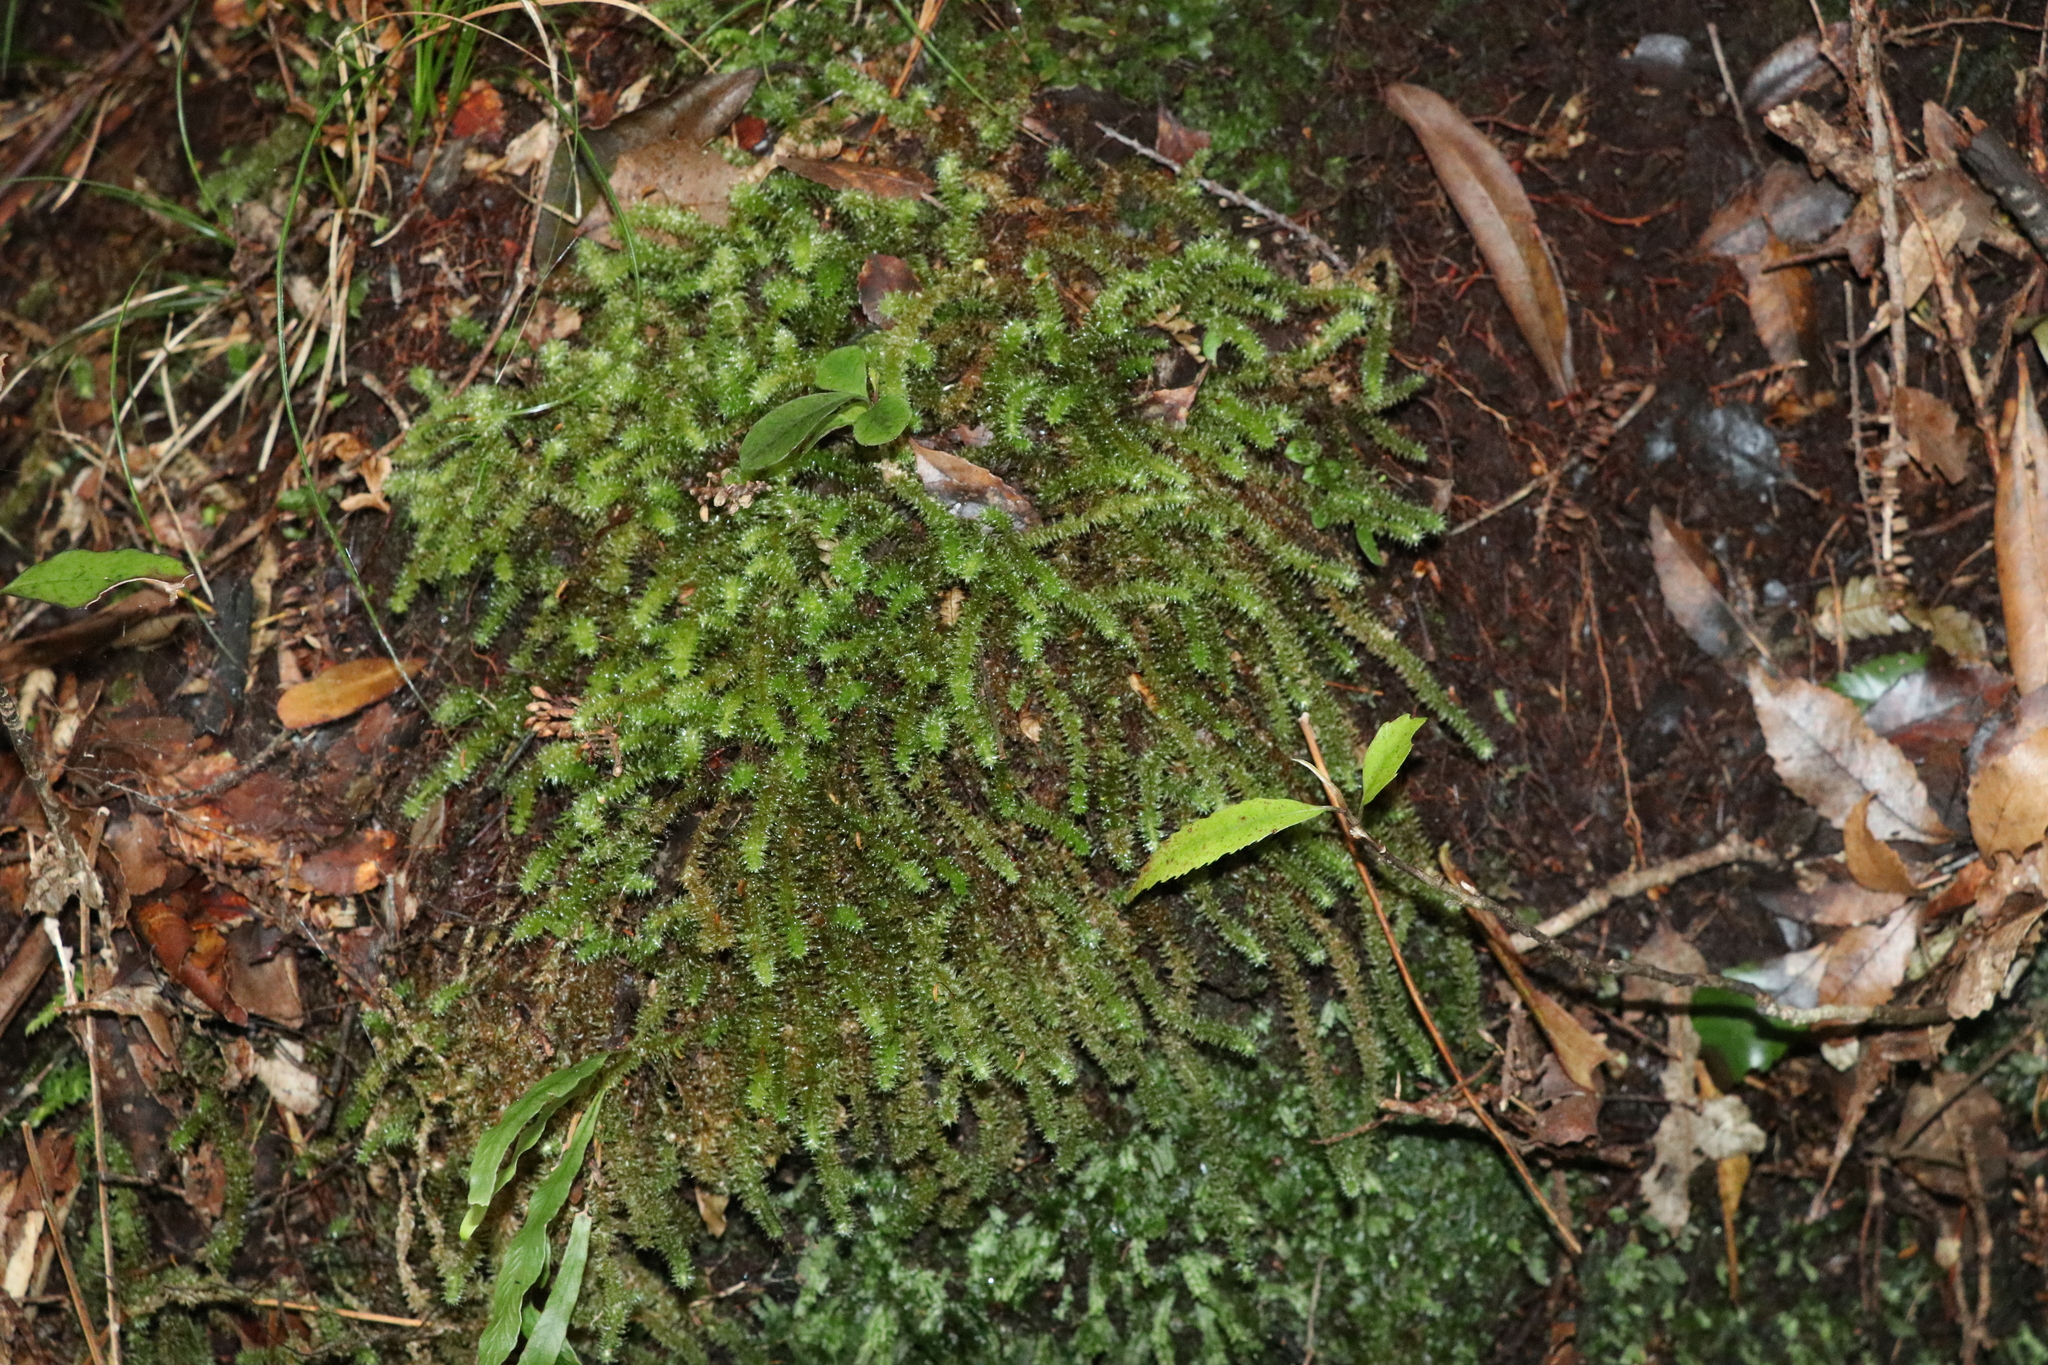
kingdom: Plantae
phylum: Bryophyta
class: Bryopsida
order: Ptychomniales
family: Ptychomniaceae
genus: Ptychomnion
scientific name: Ptychomnion aciculare
